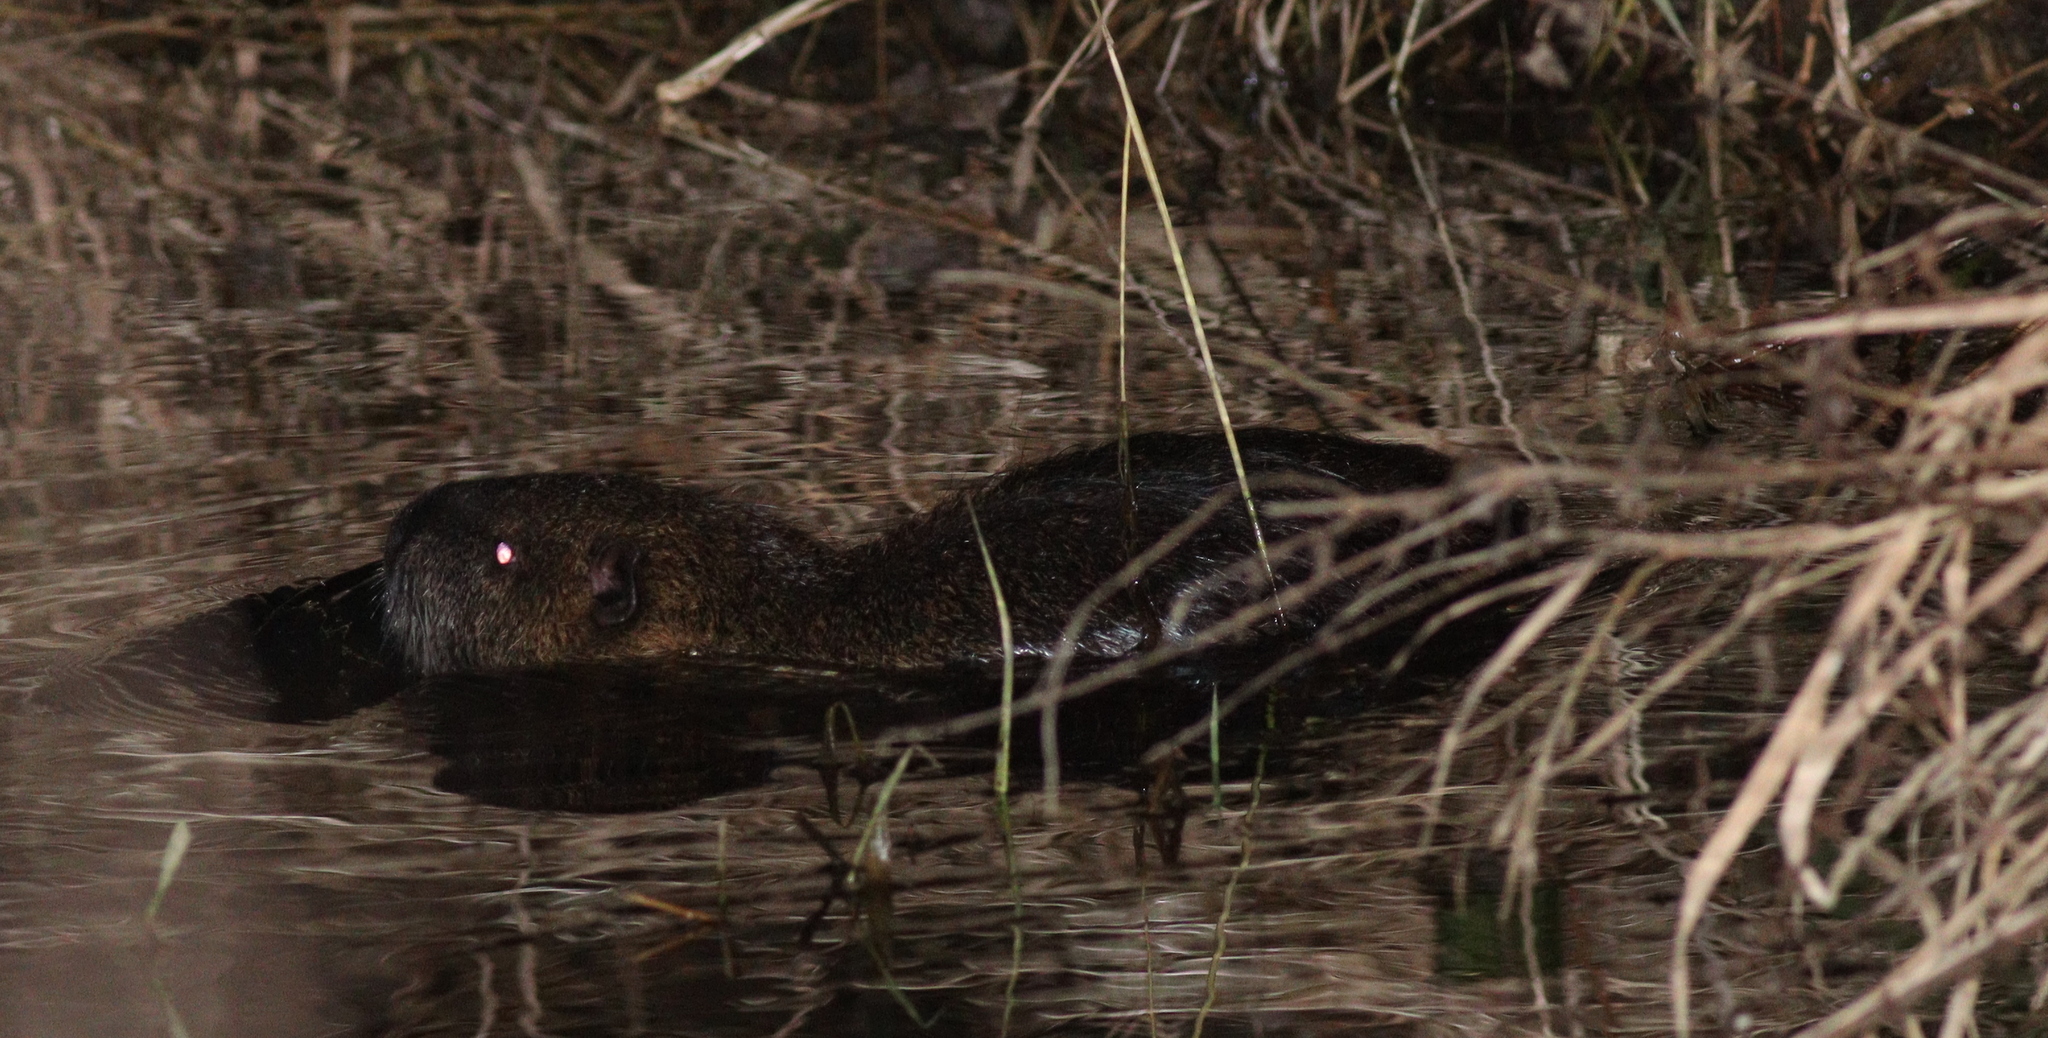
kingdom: Animalia
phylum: Chordata
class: Mammalia
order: Rodentia
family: Myocastoridae
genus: Myocastor
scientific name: Myocastor coypus
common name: Coypu
